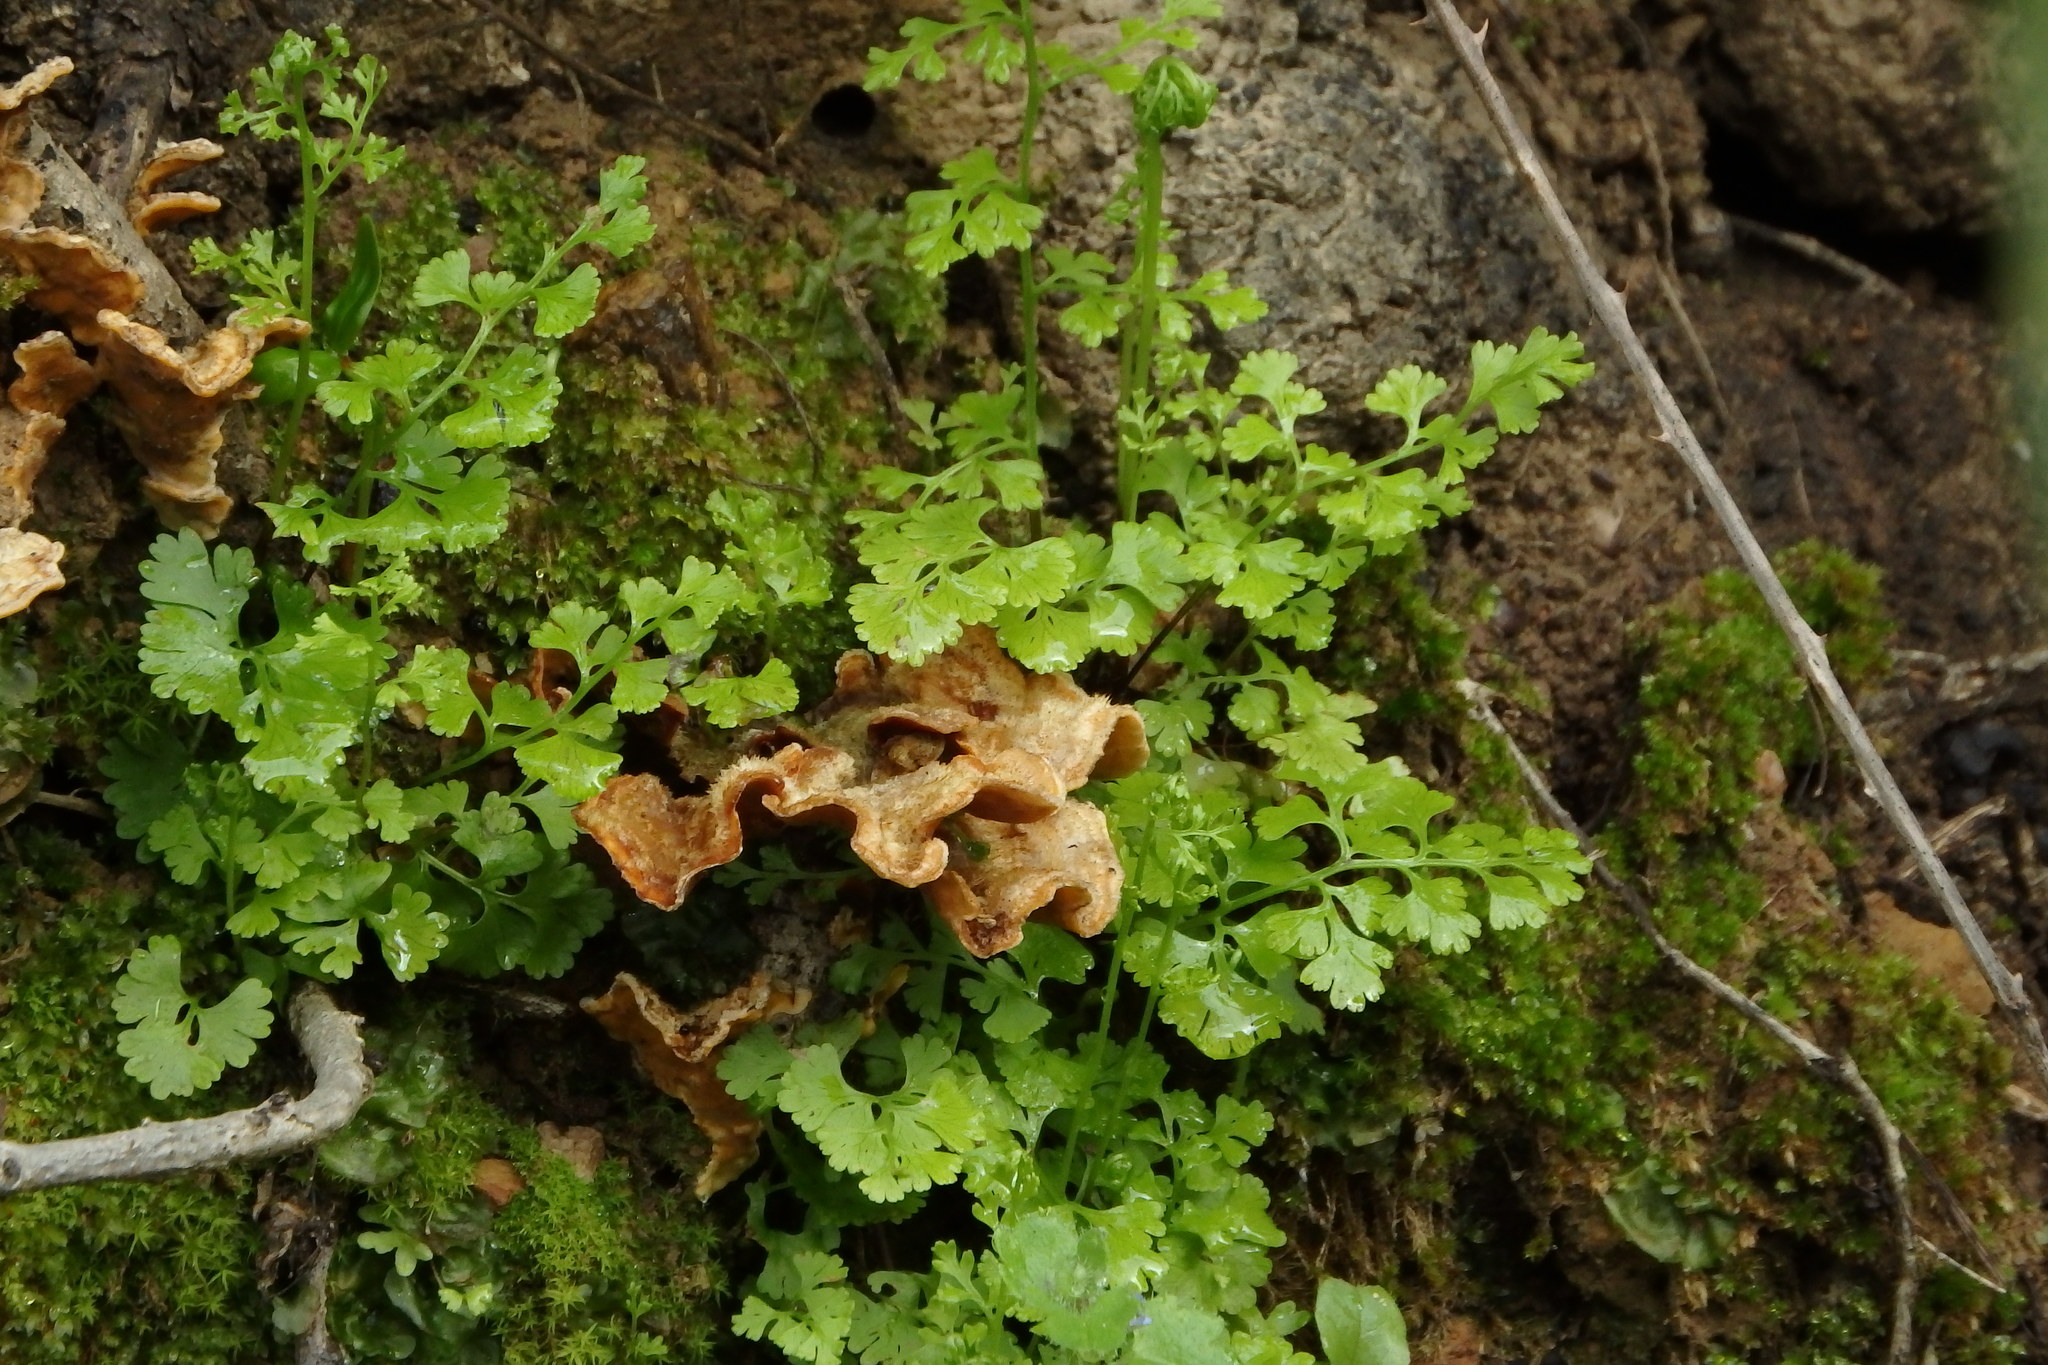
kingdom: Plantae
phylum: Tracheophyta
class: Polypodiopsida
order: Polypodiales
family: Pteridaceae
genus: Anogramma
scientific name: Anogramma leptophylla
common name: Jersey fern
